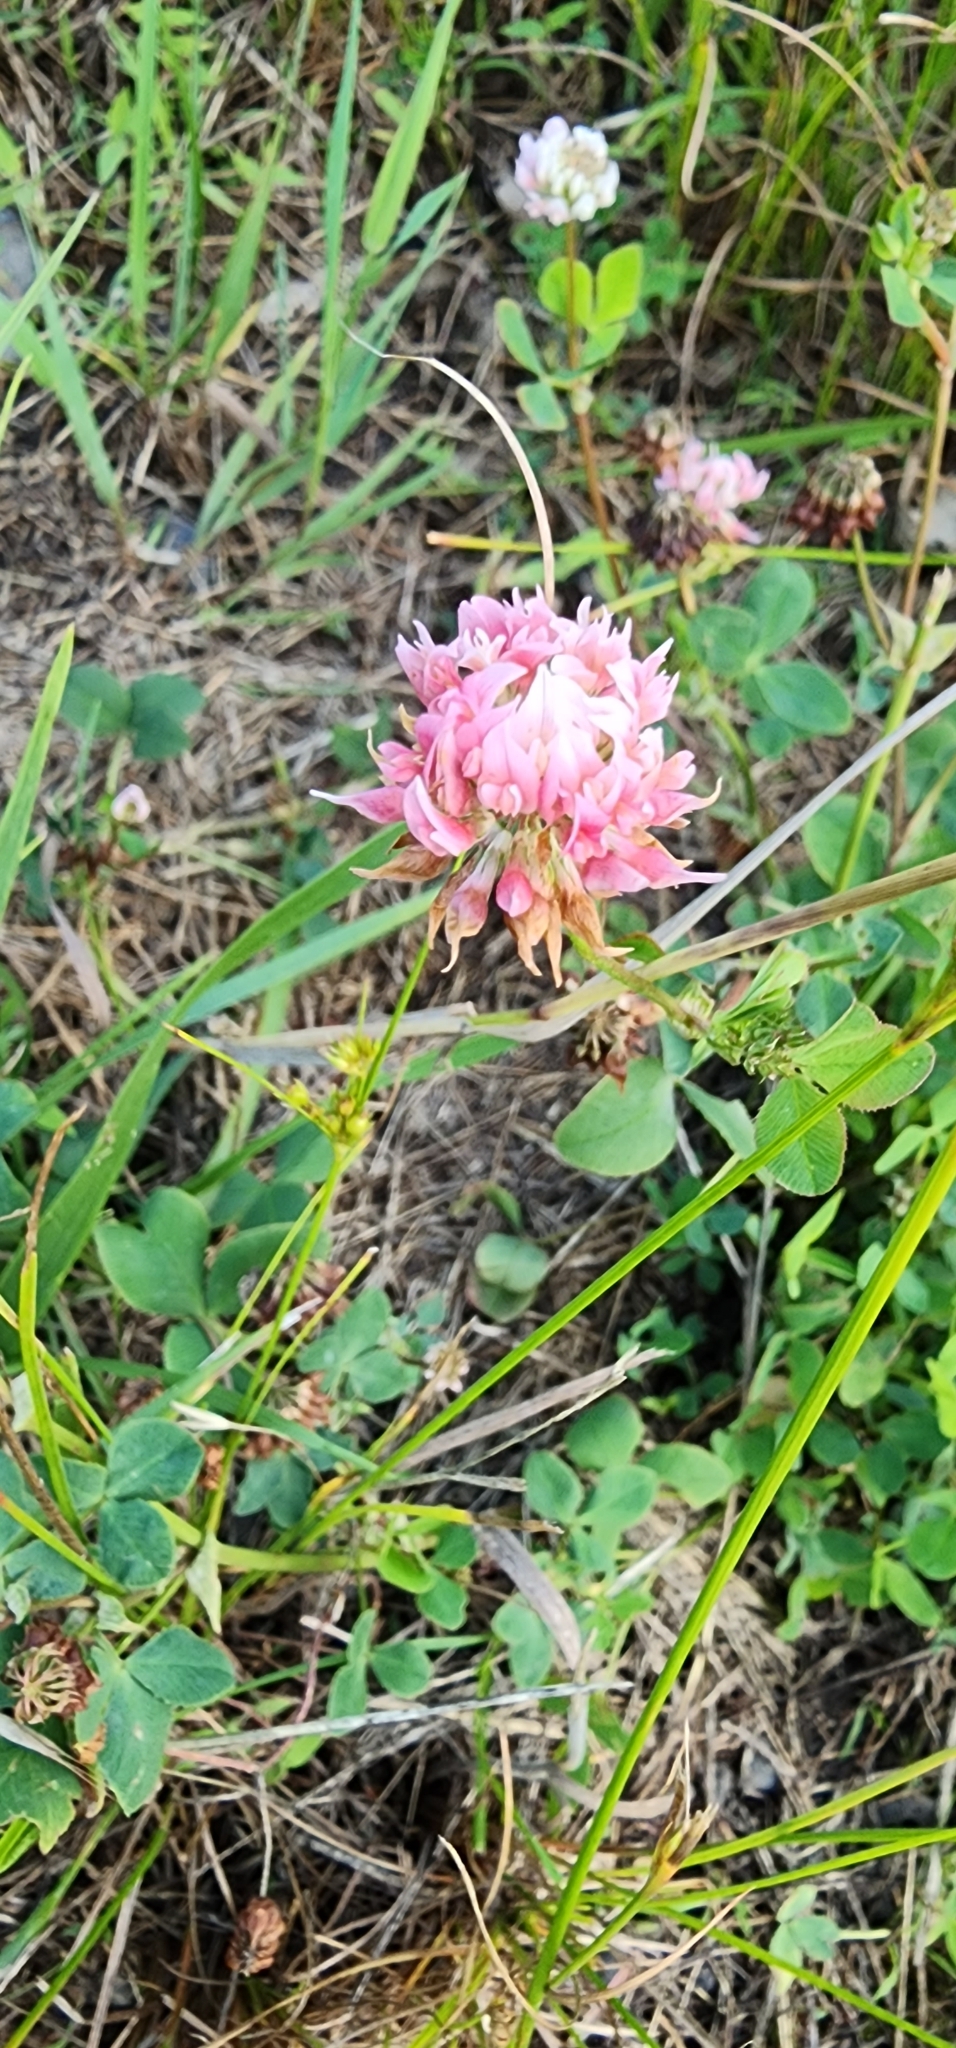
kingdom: Plantae
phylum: Tracheophyta
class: Magnoliopsida
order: Fabales
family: Fabaceae
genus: Trifolium
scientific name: Trifolium hybridum
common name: Alsike clover
